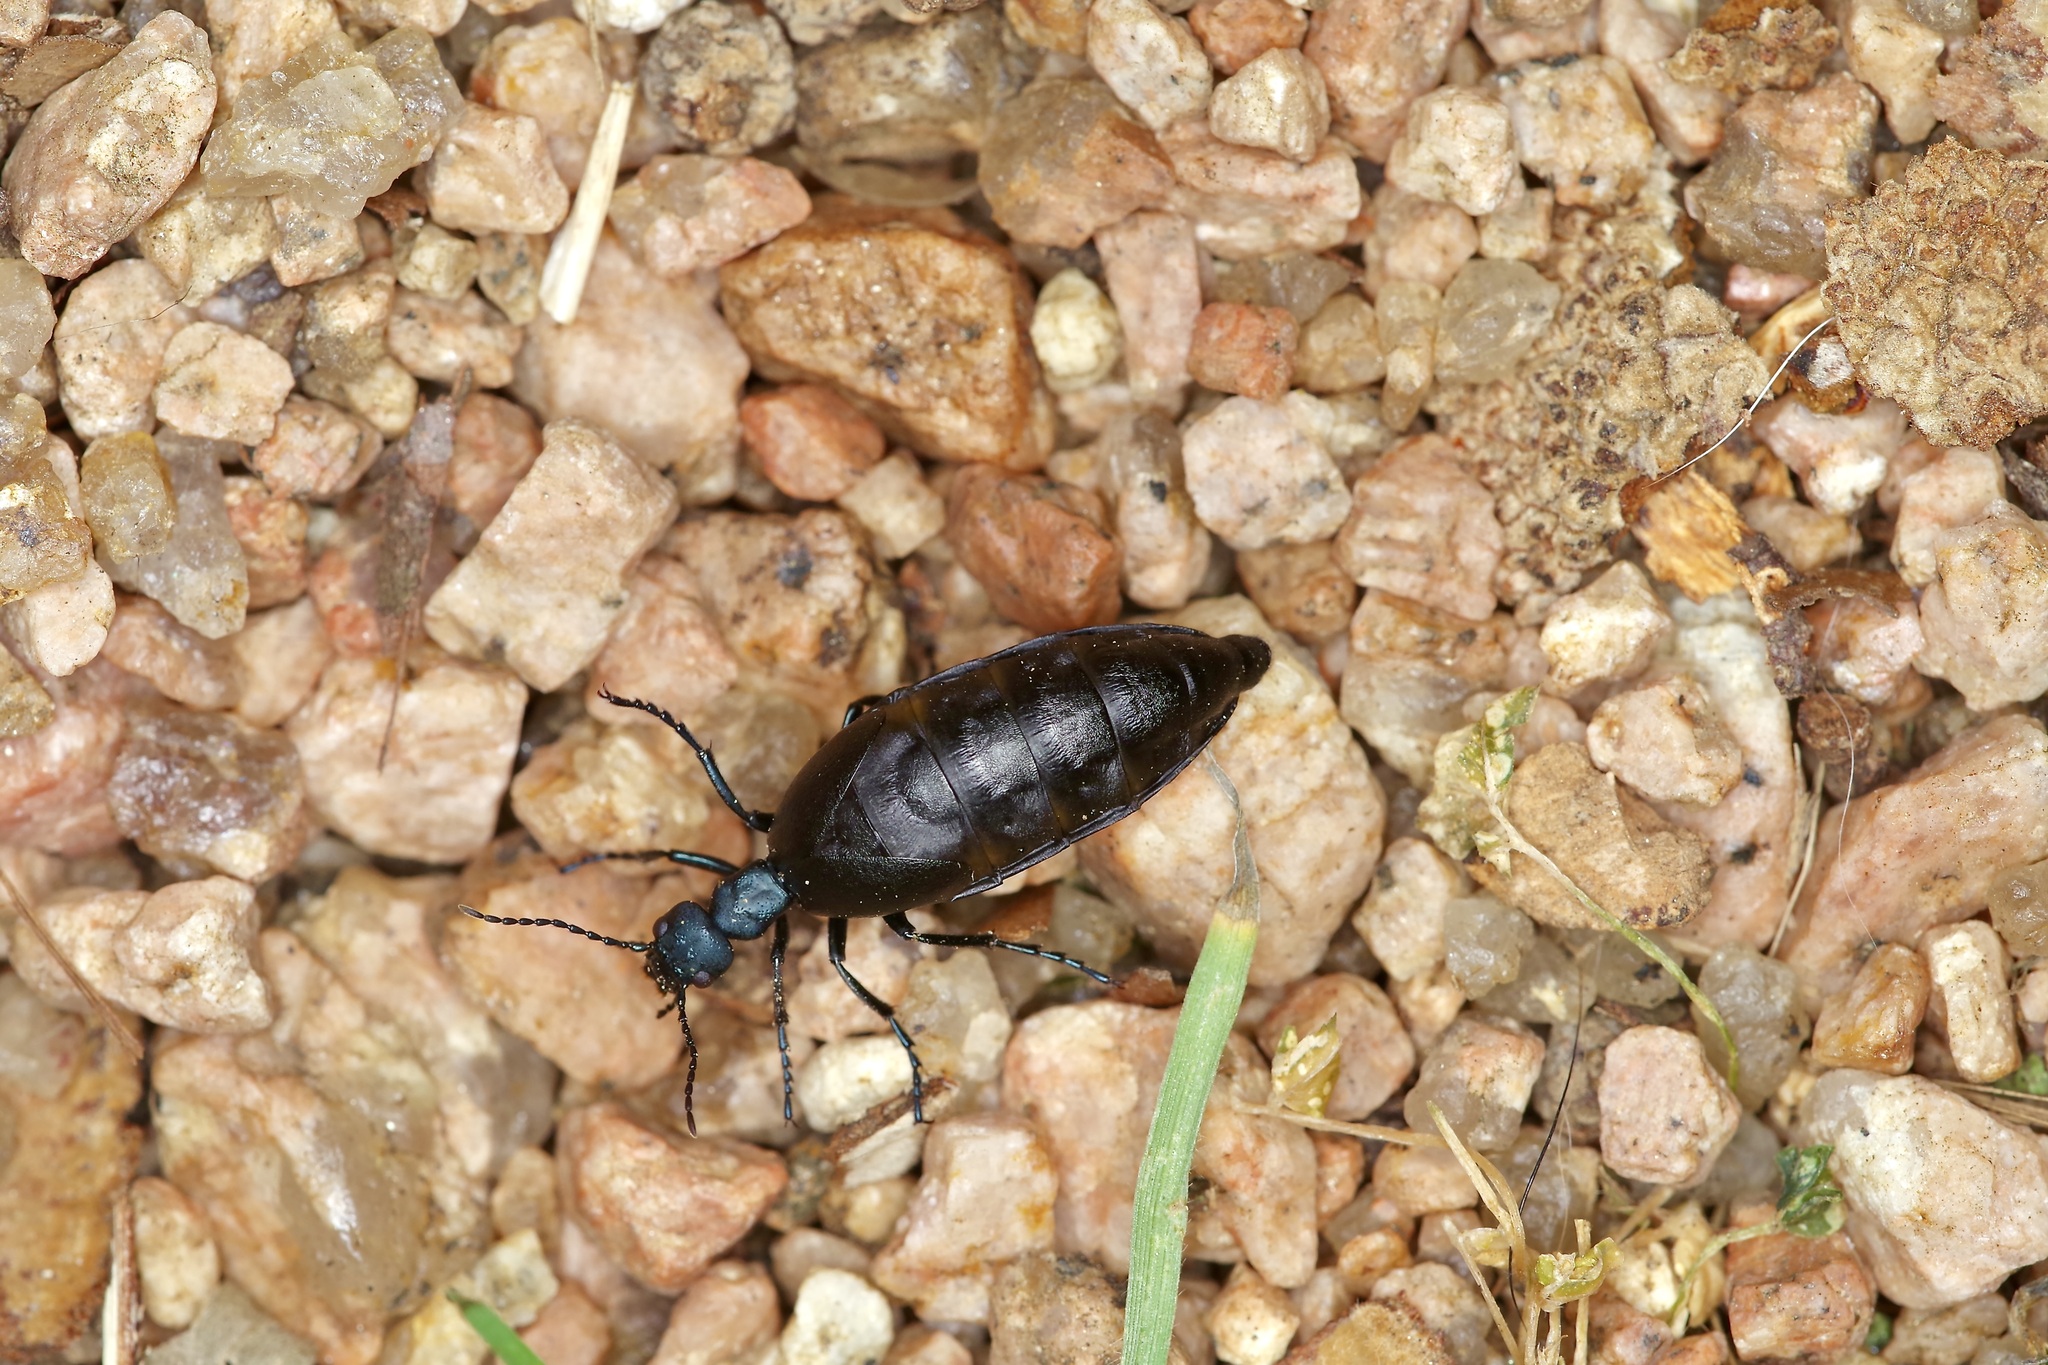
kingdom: Animalia
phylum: Arthropoda
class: Insecta
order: Coleoptera
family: Meloidae
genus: Meloe
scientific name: Meloe americanus
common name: Buttercup oil beetle
